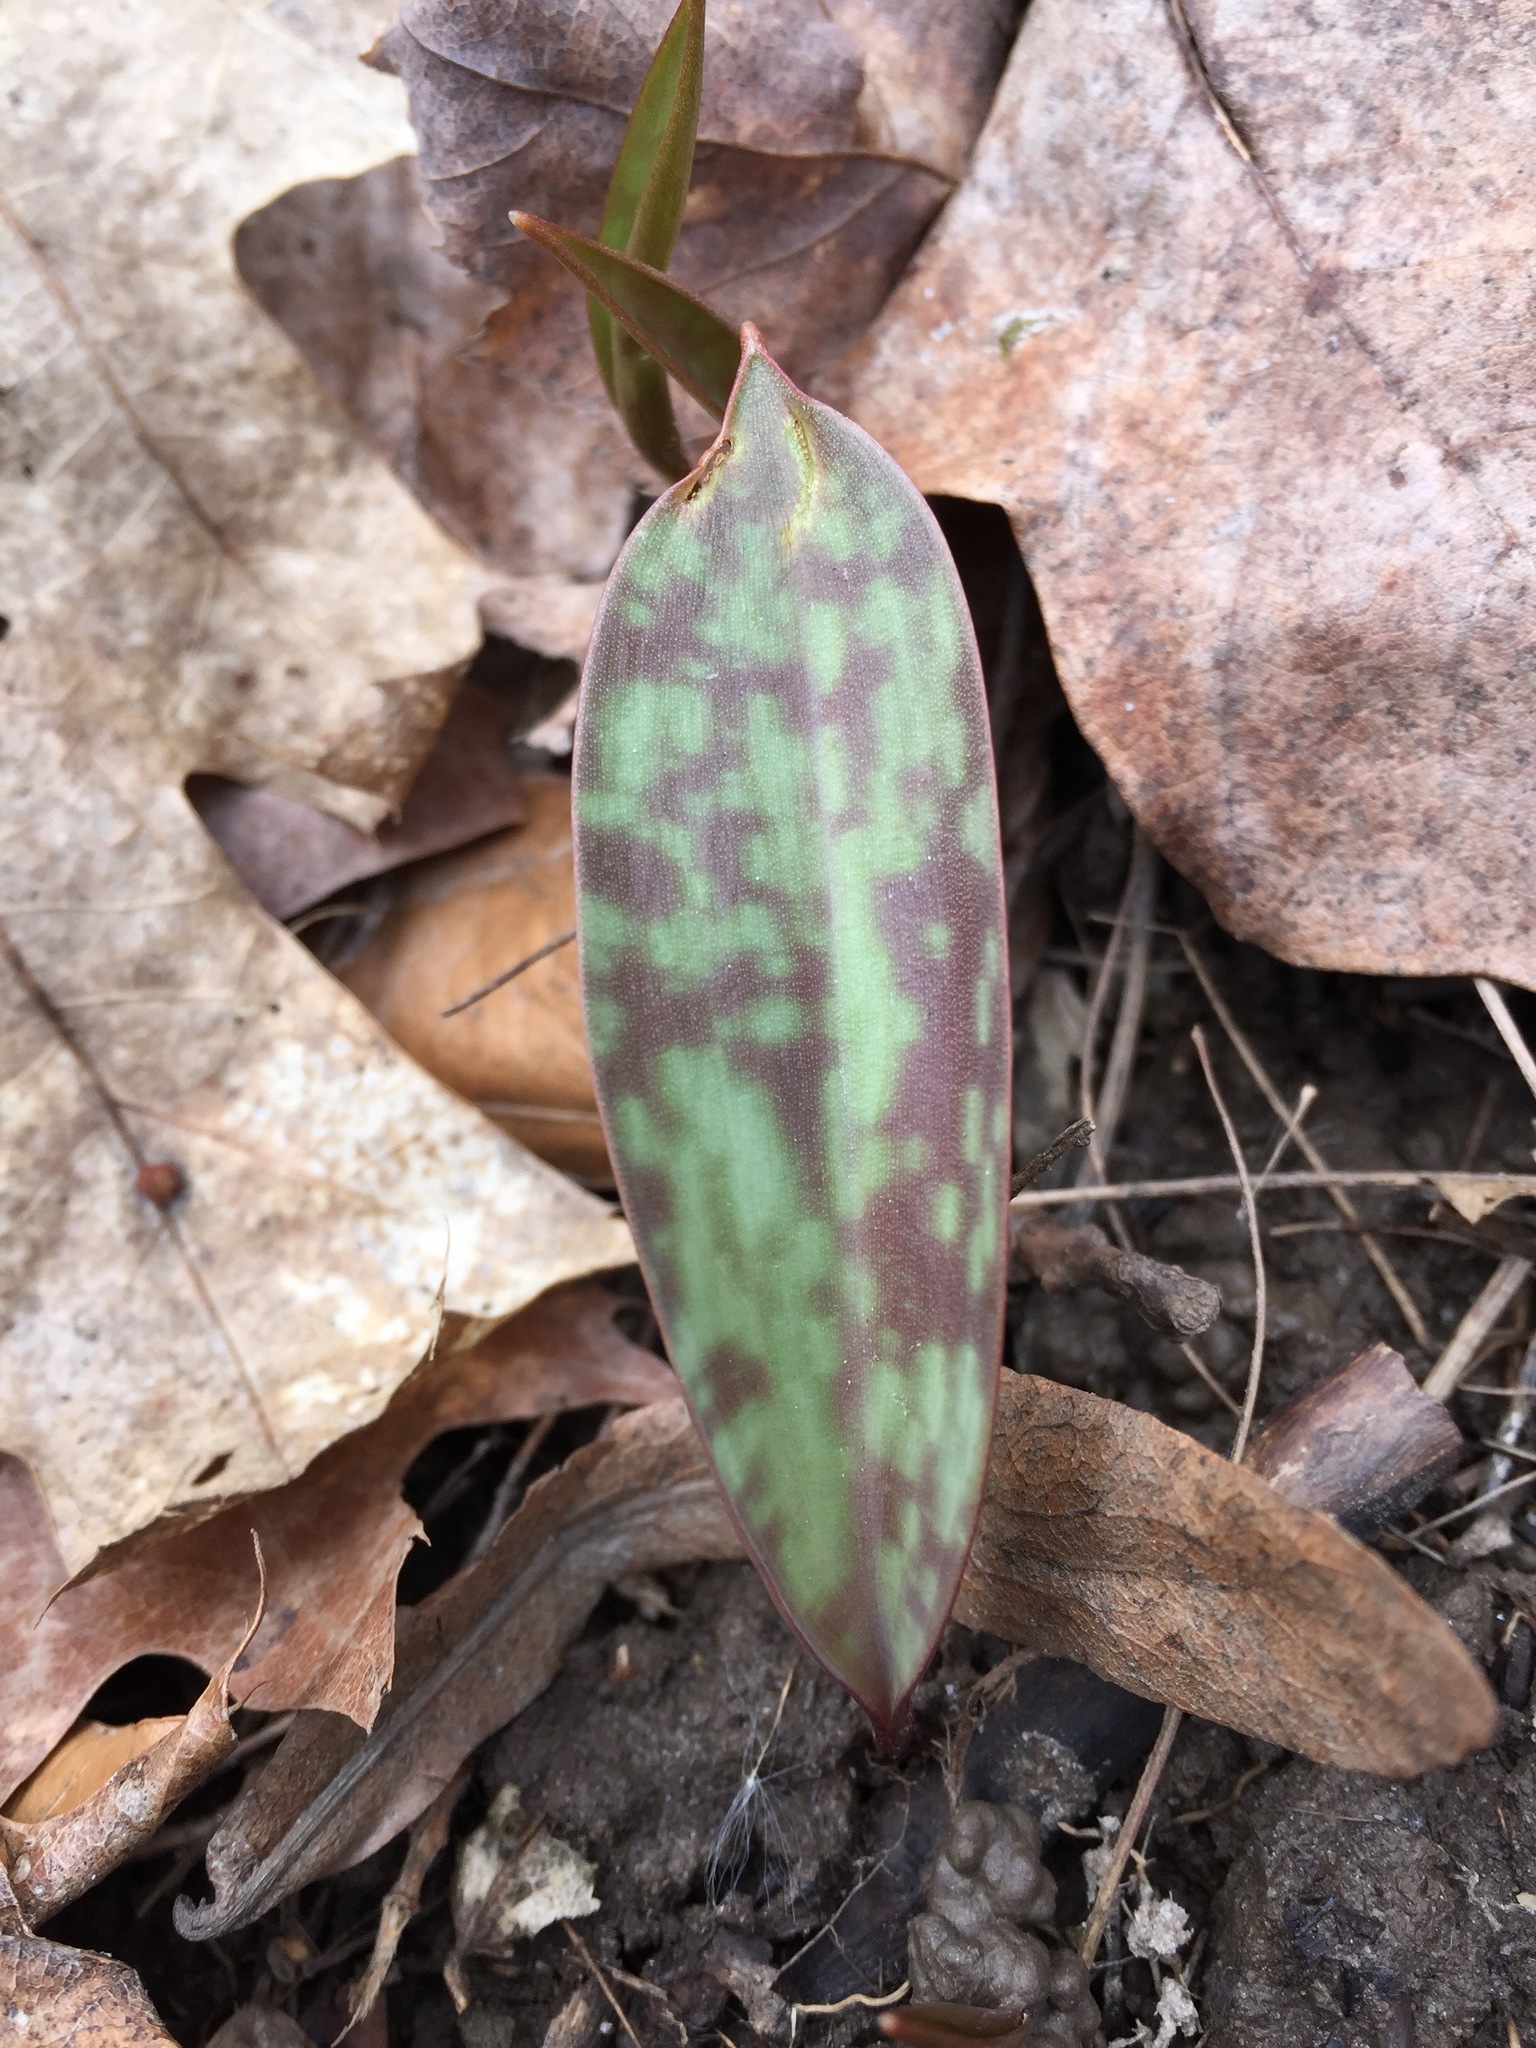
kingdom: Plantae
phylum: Tracheophyta
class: Liliopsida
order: Liliales
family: Liliaceae
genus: Erythronium
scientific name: Erythronium americanum
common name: Yellow adder's-tongue
